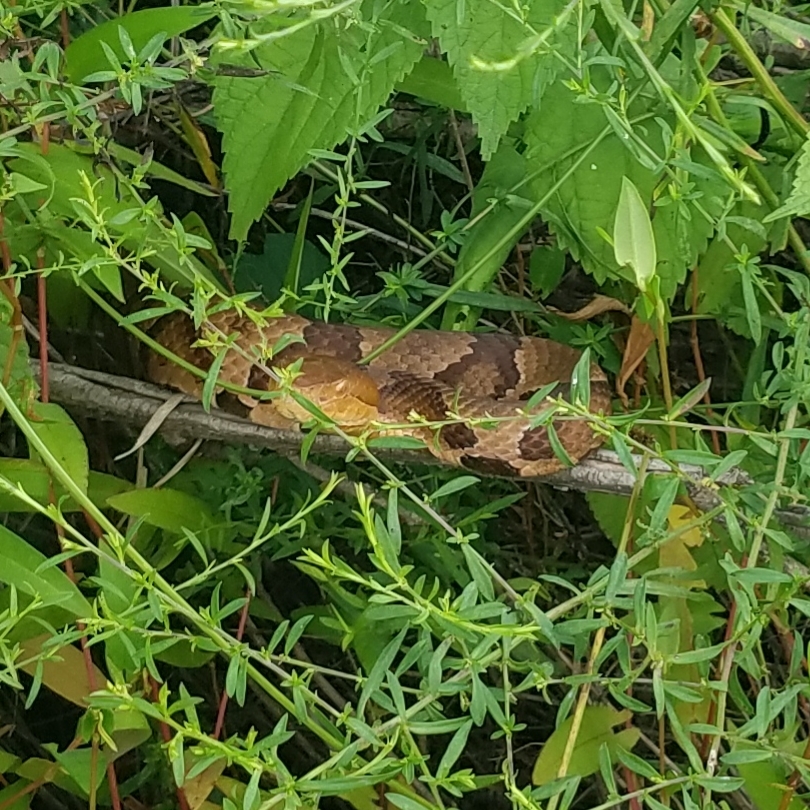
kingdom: Animalia
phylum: Chordata
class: Squamata
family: Viperidae
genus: Agkistrodon
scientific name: Agkistrodon contortrix
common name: Northern copperhead
